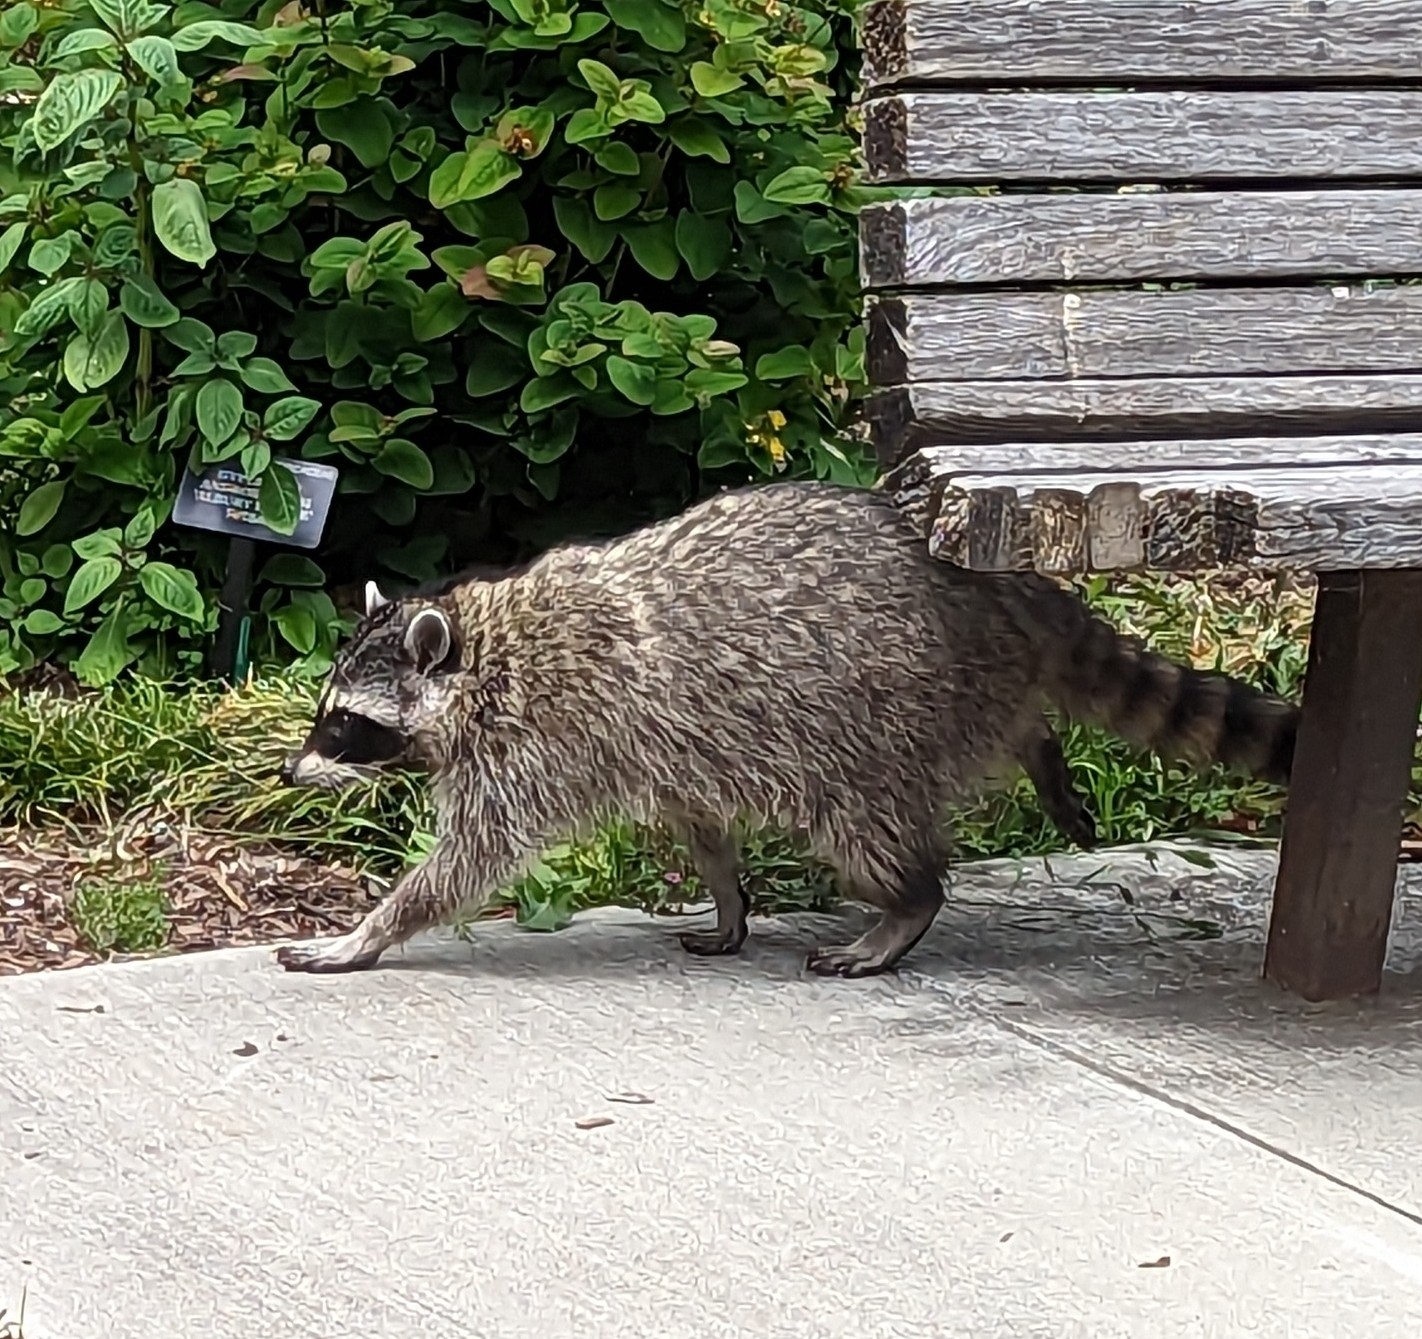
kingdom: Animalia
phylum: Chordata
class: Mammalia
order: Carnivora
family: Procyonidae
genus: Procyon
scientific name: Procyon lotor
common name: Raccoon
